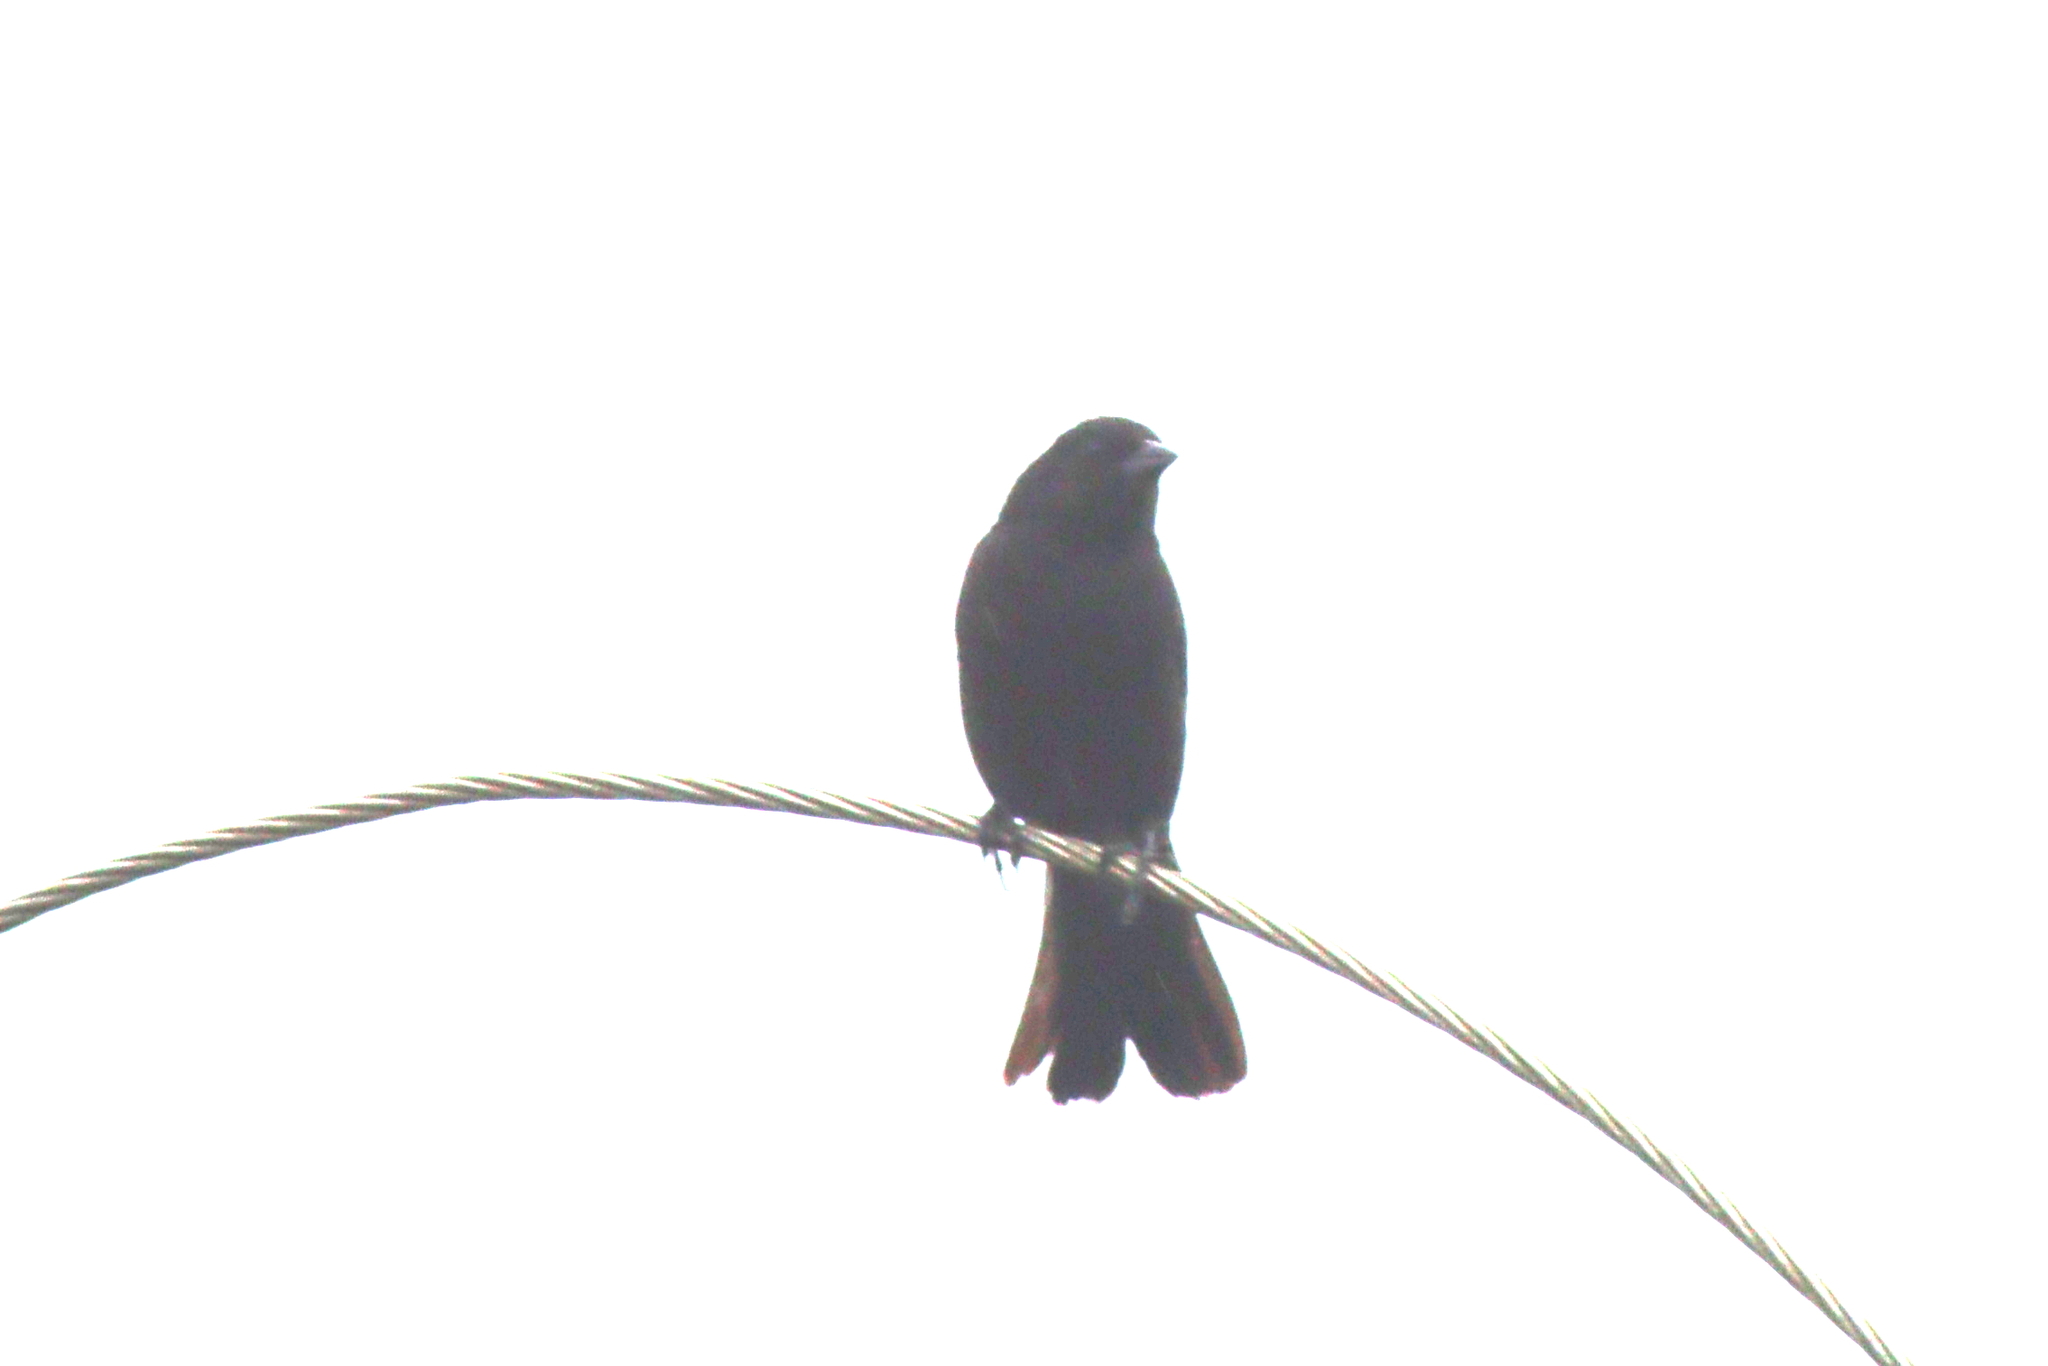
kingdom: Animalia
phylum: Chordata
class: Aves
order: Passeriformes
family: Icteridae
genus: Molothrus
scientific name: Molothrus bonariensis
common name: Shiny cowbird
